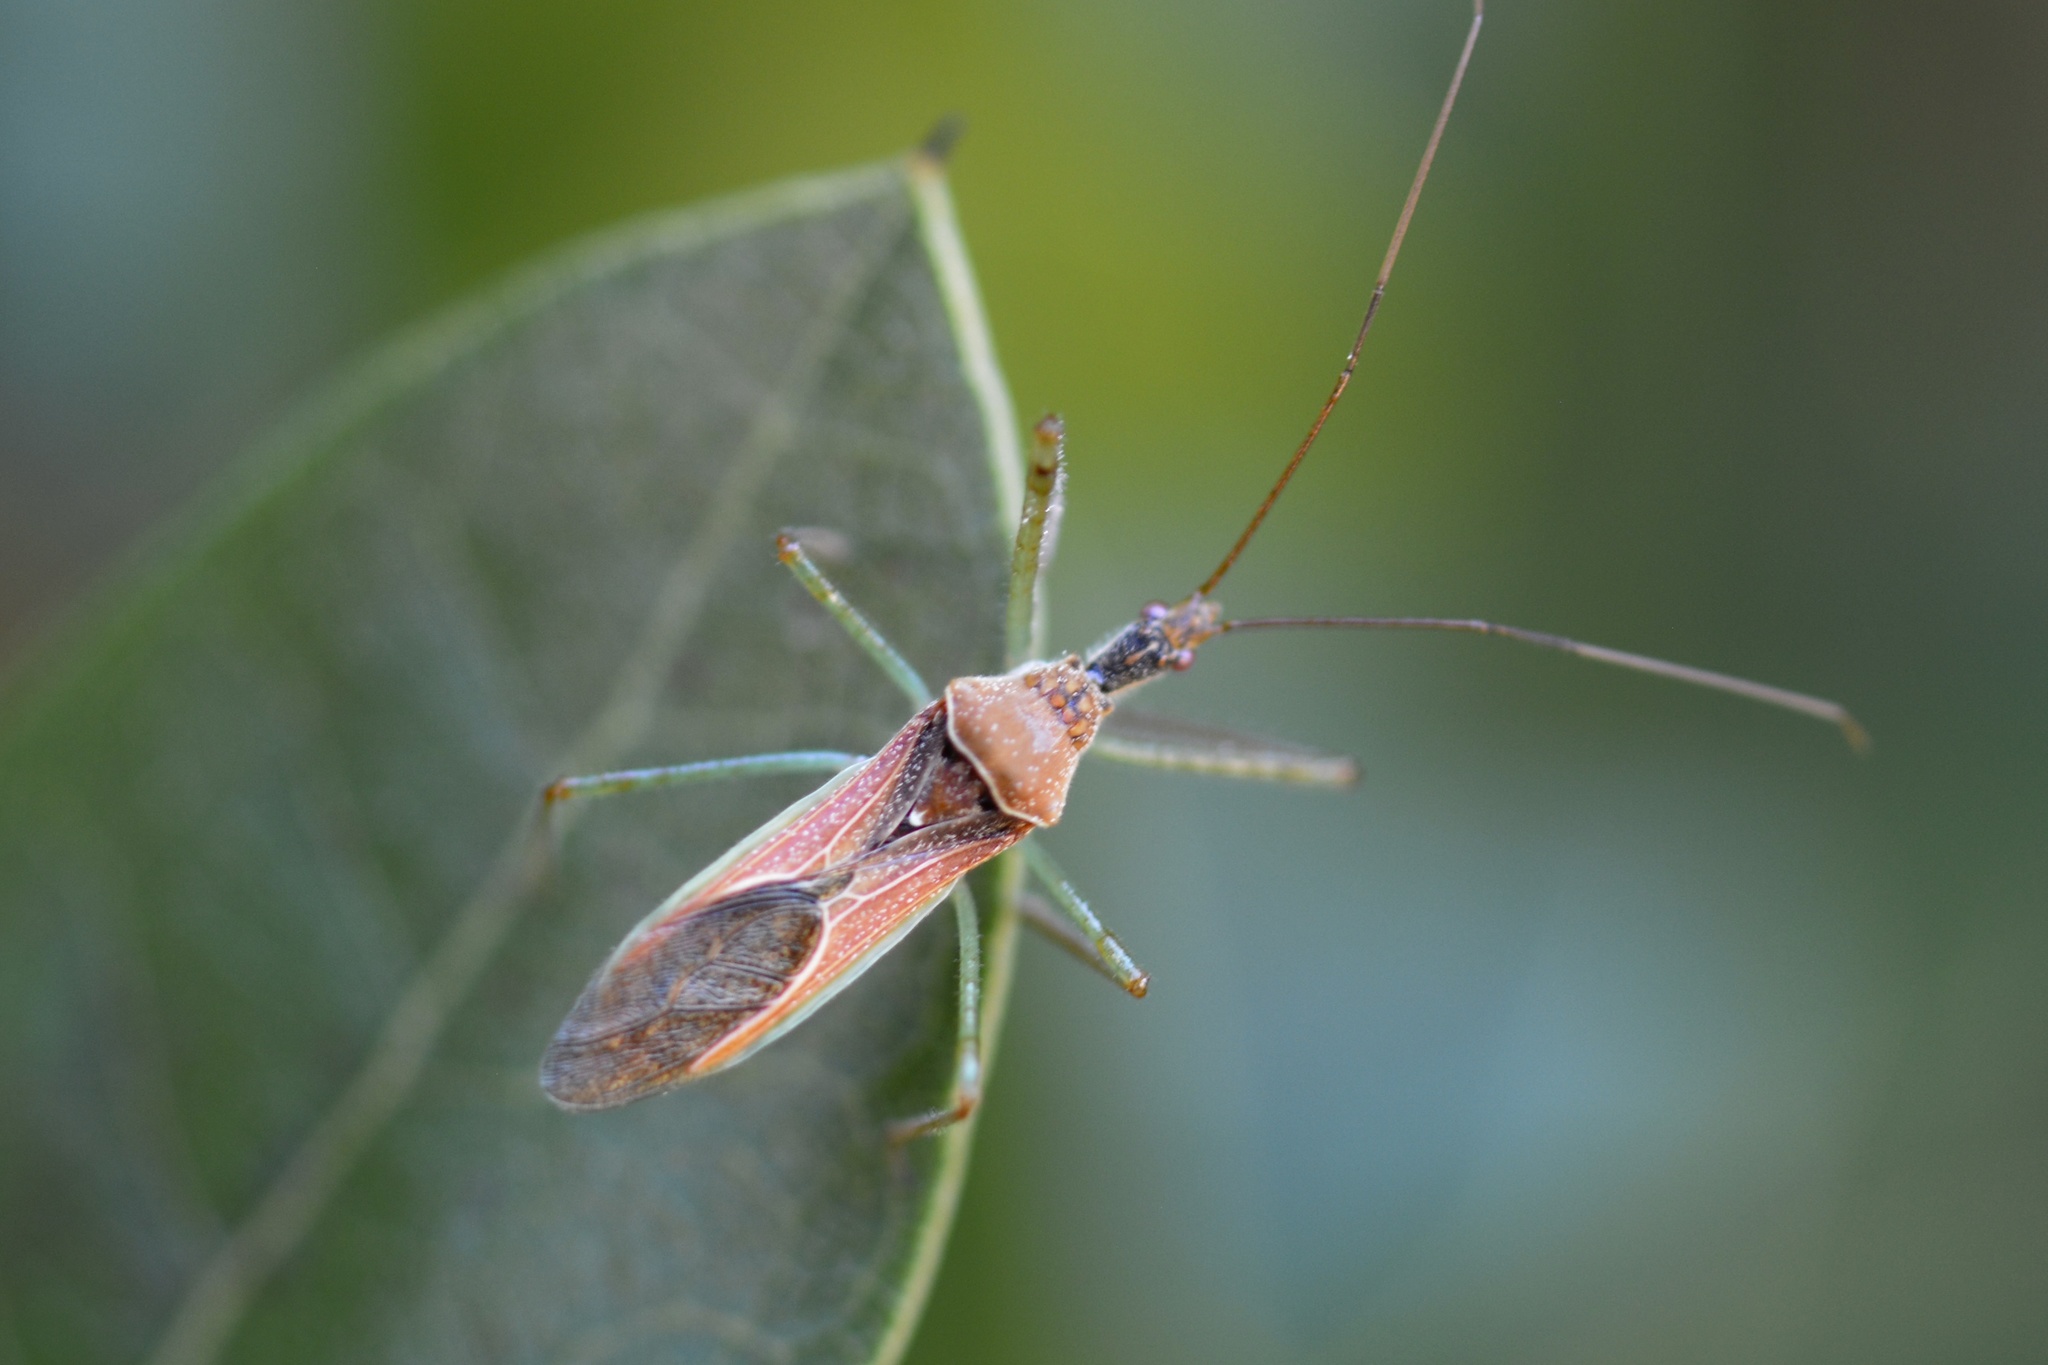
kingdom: Animalia
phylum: Arthropoda
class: Insecta
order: Hemiptera
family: Reduviidae
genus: Zelus
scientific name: Zelus renardii
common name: Assassin bug
